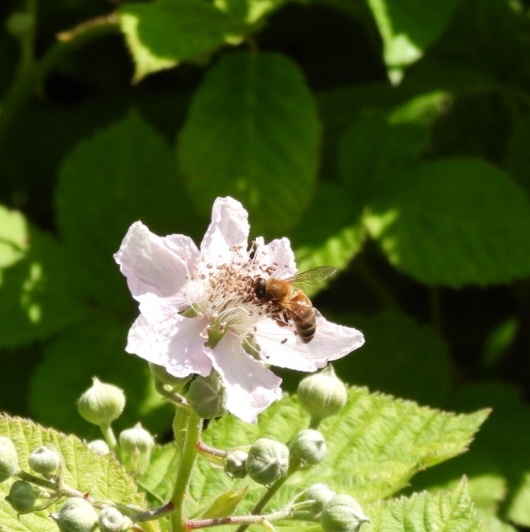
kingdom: Animalia
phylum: Arthropoda
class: Insecta
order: Hymenoptera
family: Apidae
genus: Apis
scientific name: Apis mellifera
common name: Honey bee
